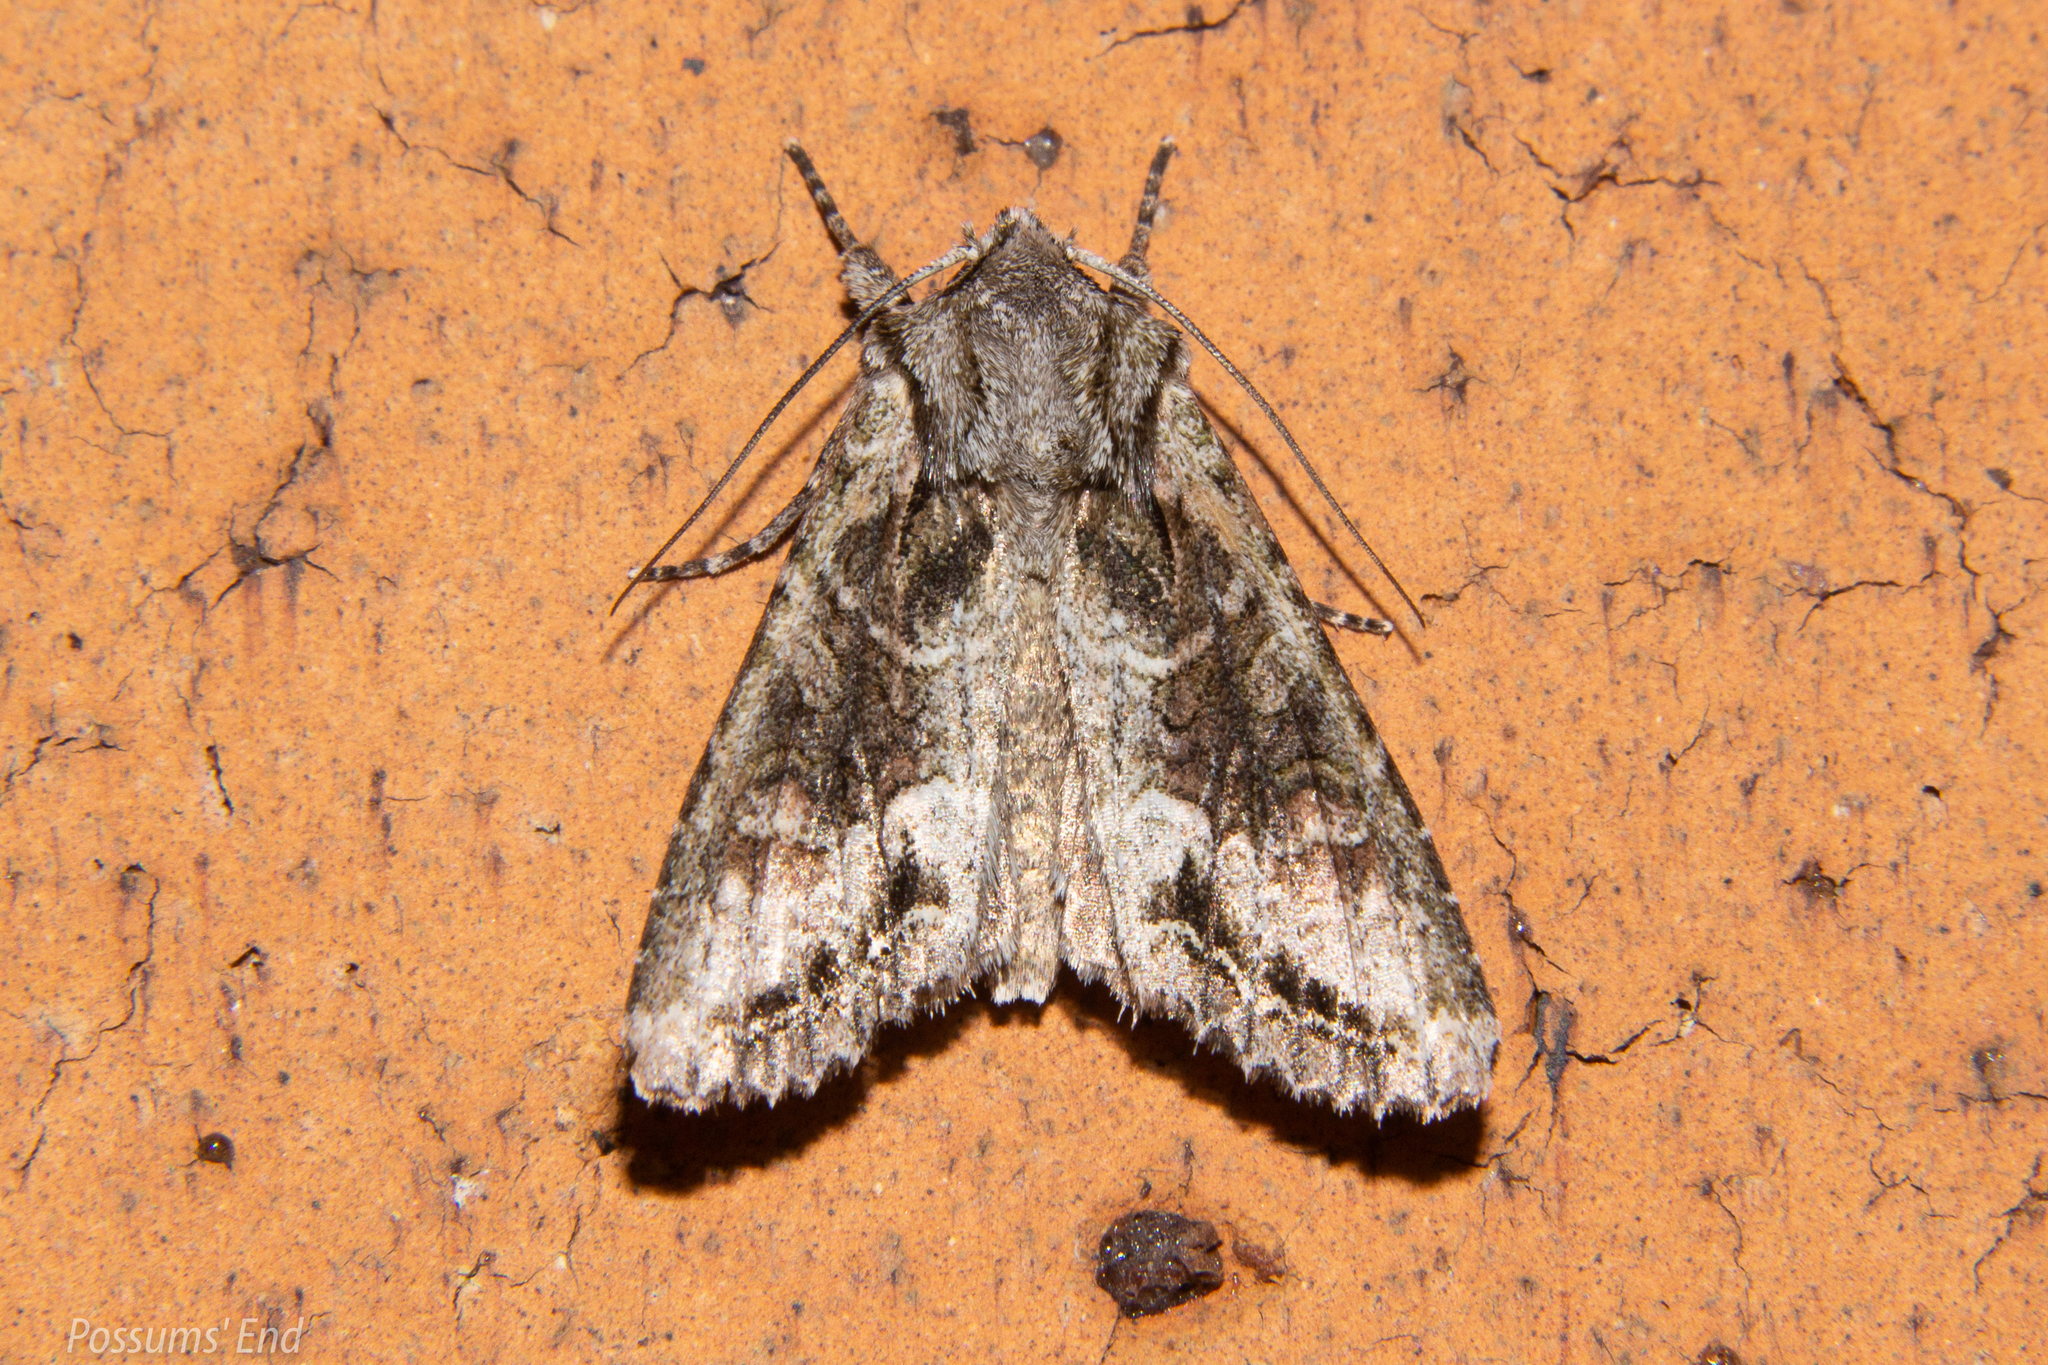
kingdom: Animalia
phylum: Arthropoda
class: Insecta
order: Lepidoptera
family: Noctuidae
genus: Ichneutica
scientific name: Ichneutica mutans
